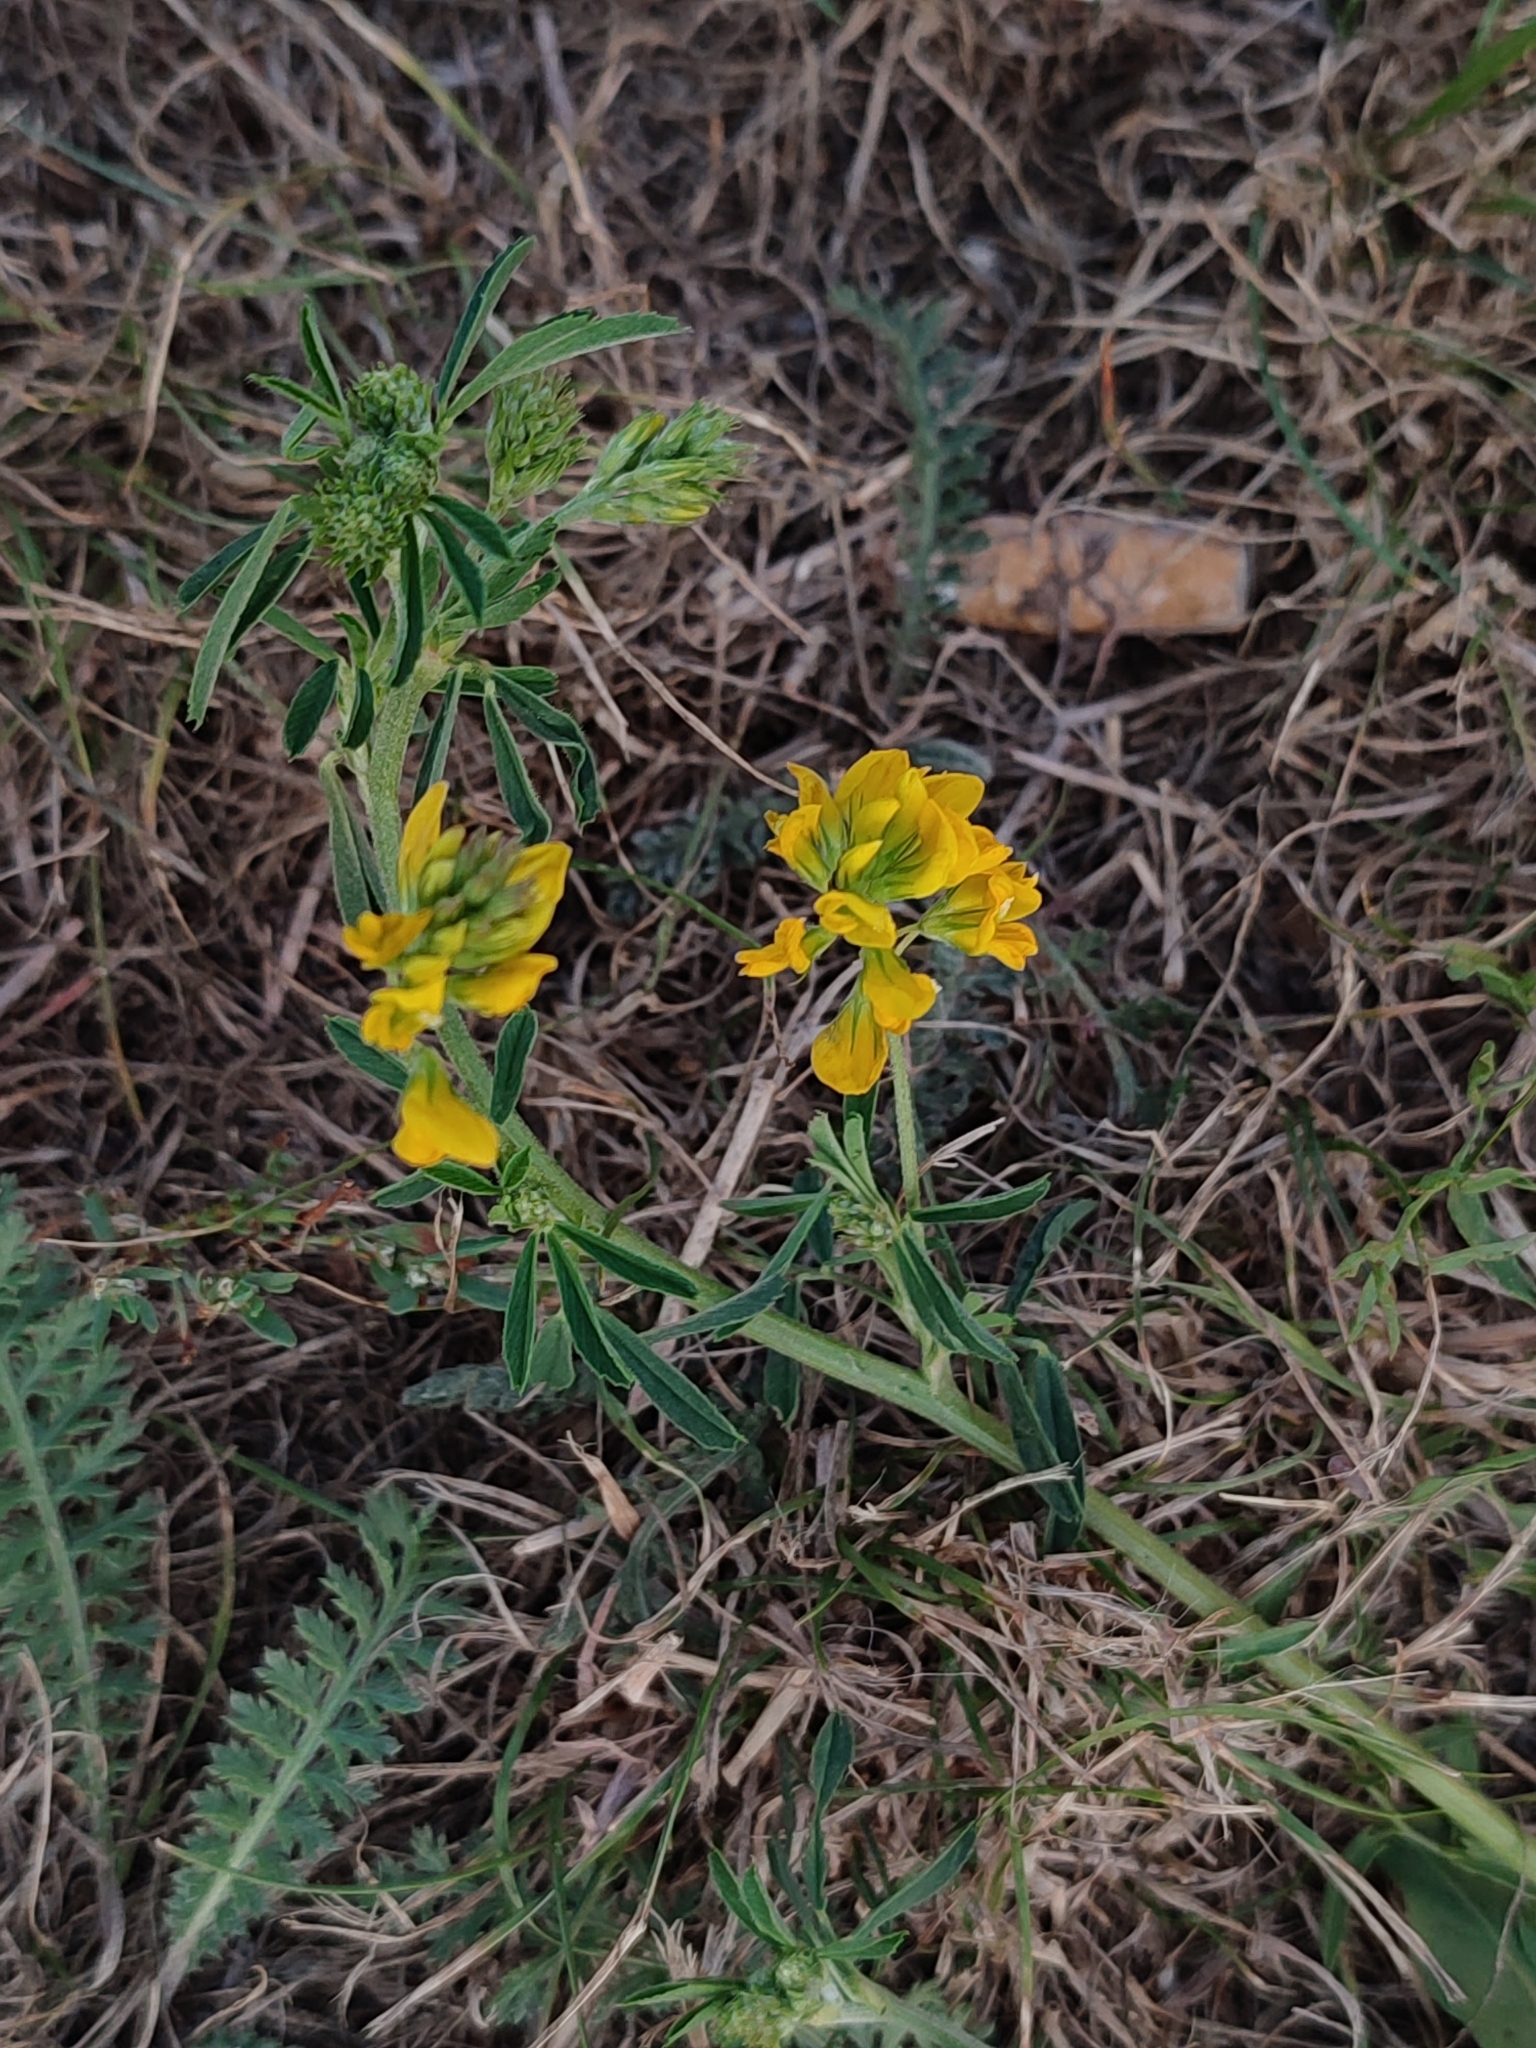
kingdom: Plantae
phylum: Tracheophyta
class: Magnoliopsida
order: Fabales
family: Fabaceae
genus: Medicago
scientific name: Medicago falcata
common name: Sickle medick
